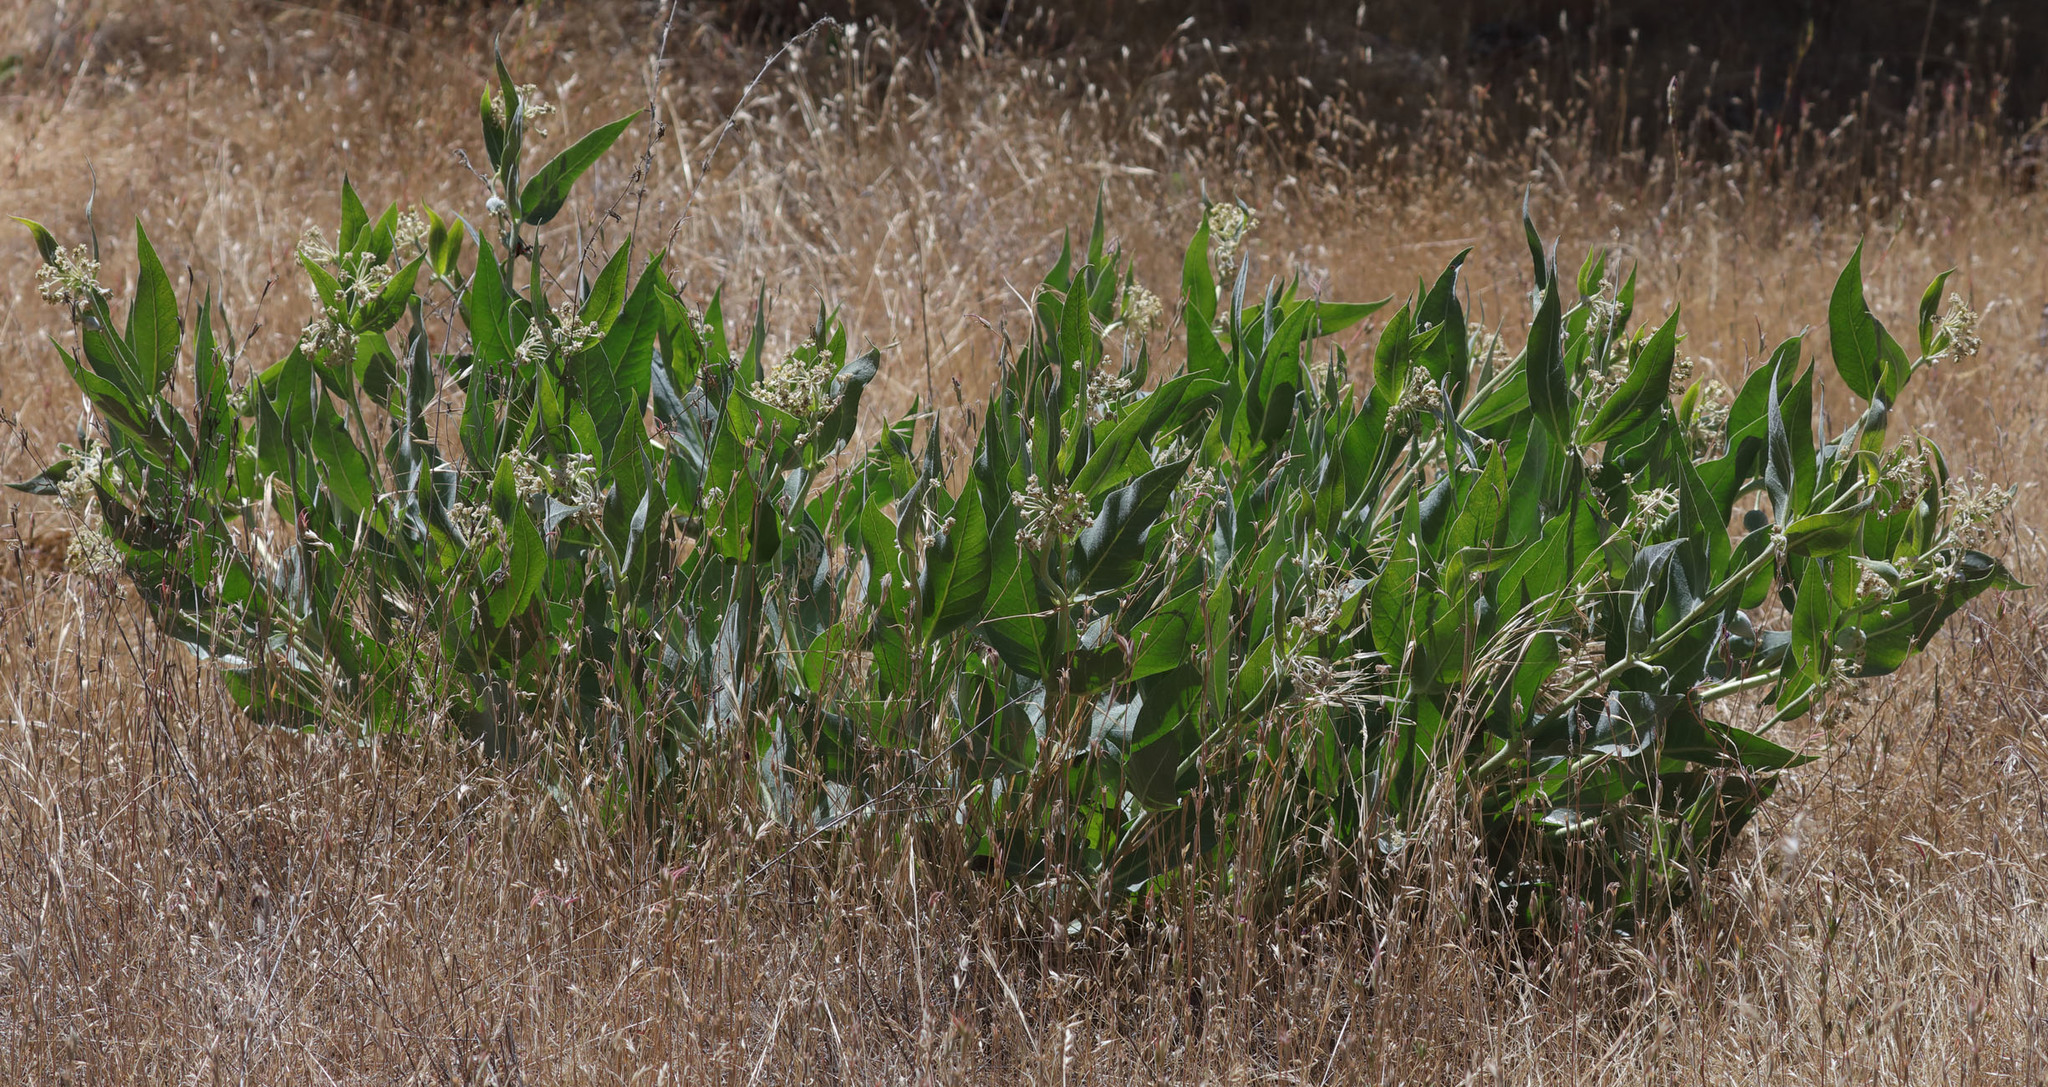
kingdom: Plantae
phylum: Tracheophyta
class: Magnoliopsida
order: Gentianales
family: Apocynaceae
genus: Asclepias
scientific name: Asclepias vestita
